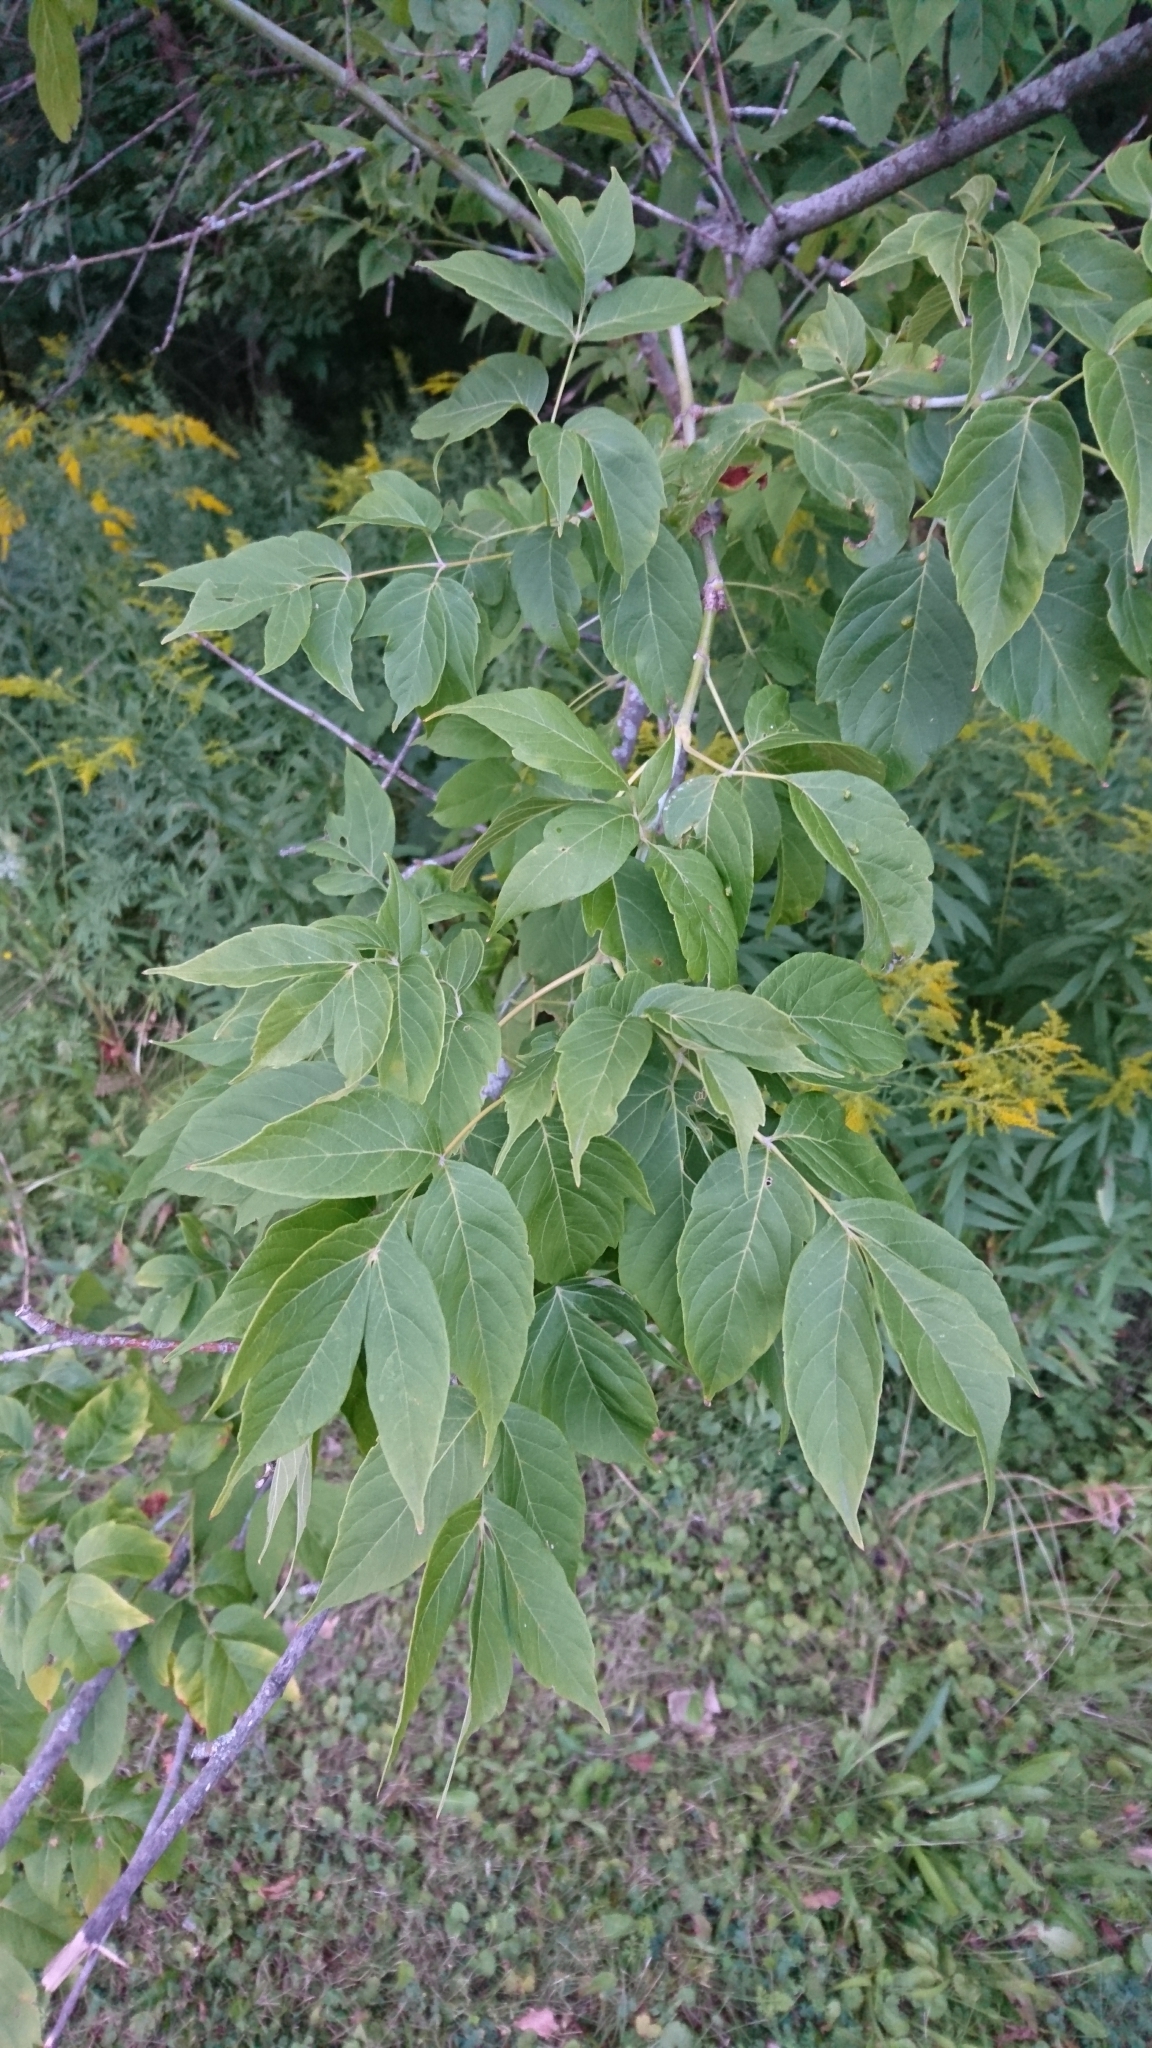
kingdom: Plantae
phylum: Tracheophyta
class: Magnoliopsida
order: Sapindales
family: Sapindaceae
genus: Acer
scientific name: Acer negundo
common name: Ashleaf maple
